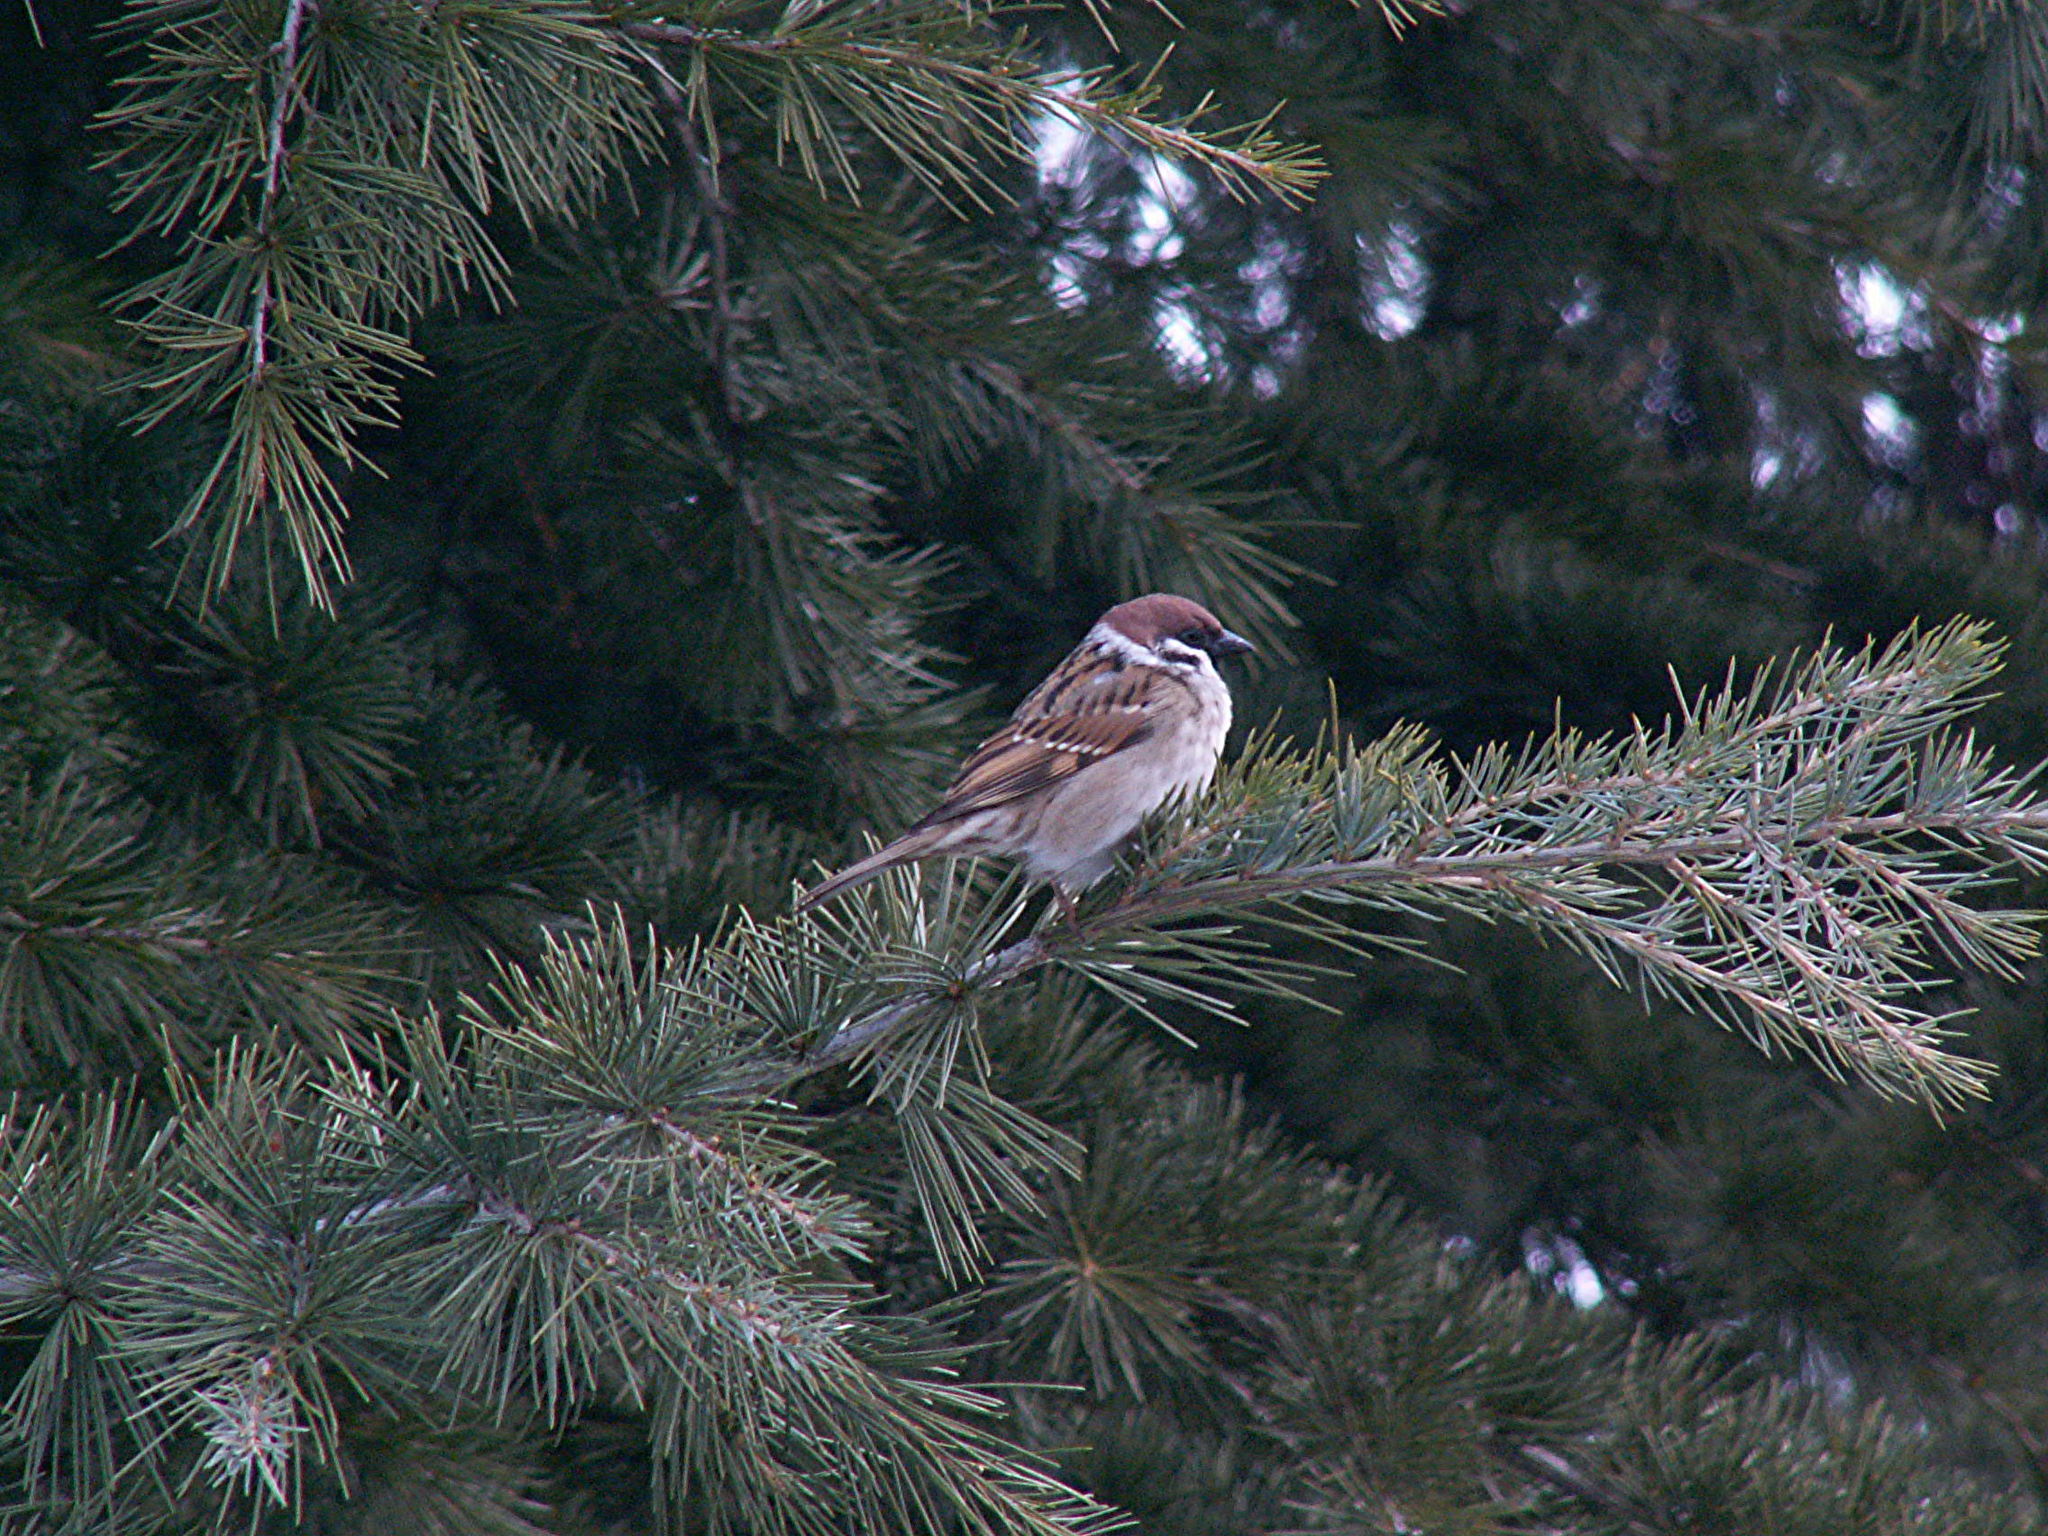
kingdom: Animalia
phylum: Chordata
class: Aves
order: Passeriformes
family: Passeridae
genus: Passer
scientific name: Passer montanus
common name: Eurasian tree sparrow
